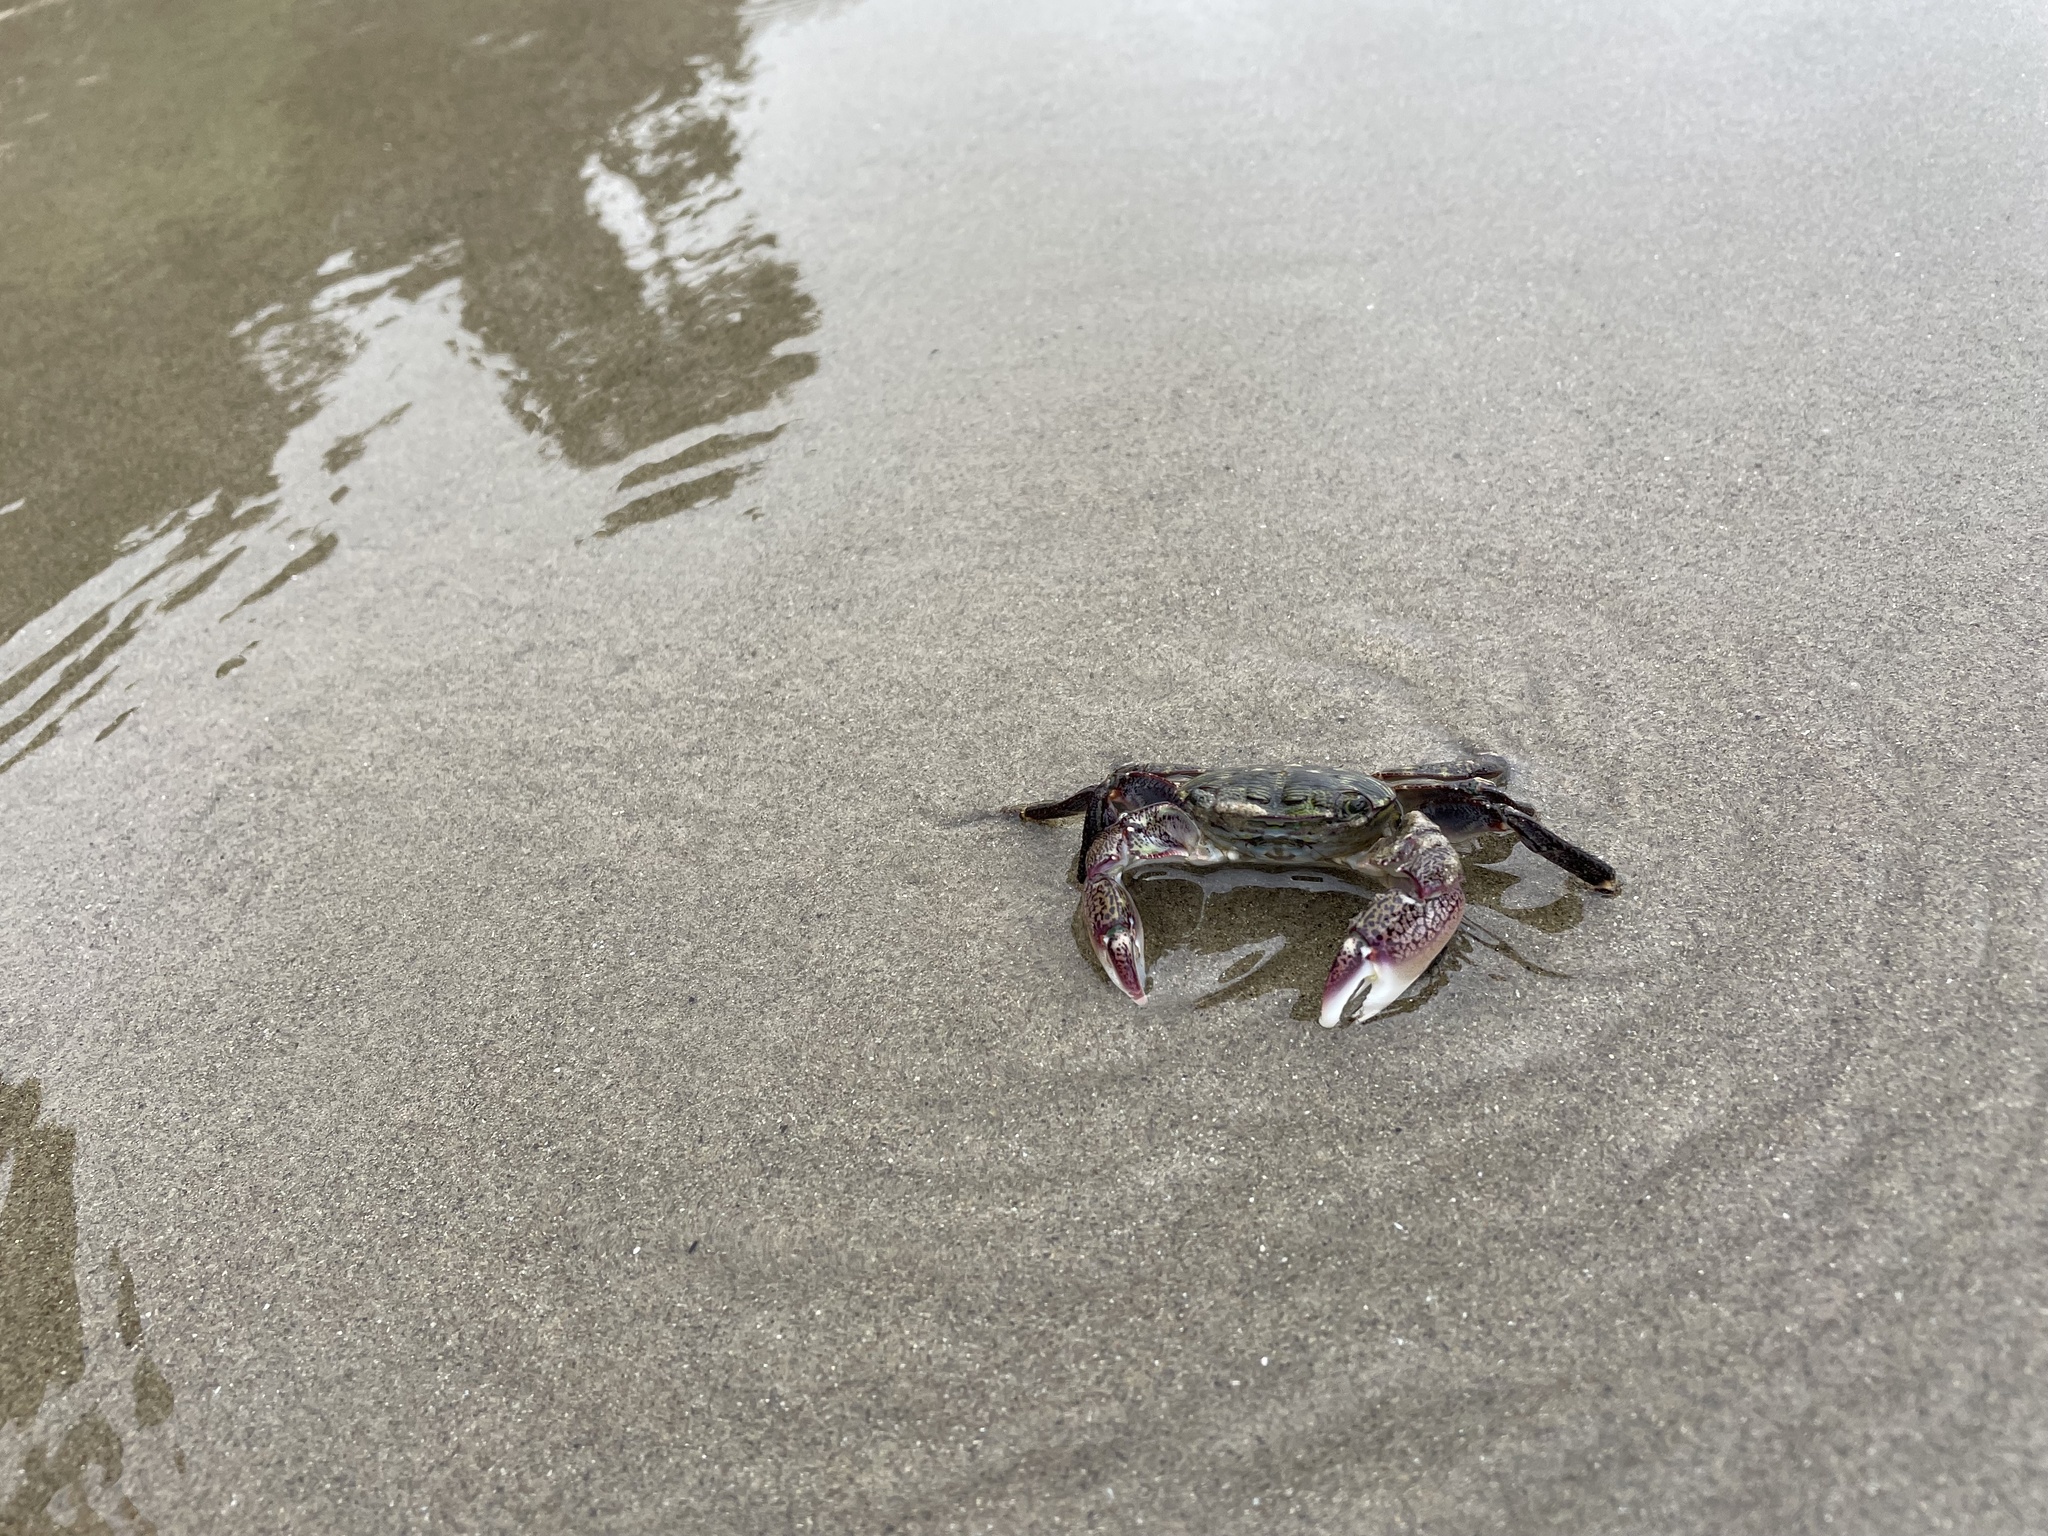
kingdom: Animalia
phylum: Arthropoda
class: Malacostraca
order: Decapoda
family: Grapsidae
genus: Pachygrapsus
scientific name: Pachygrapsus crassipes
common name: Striped shore crab
